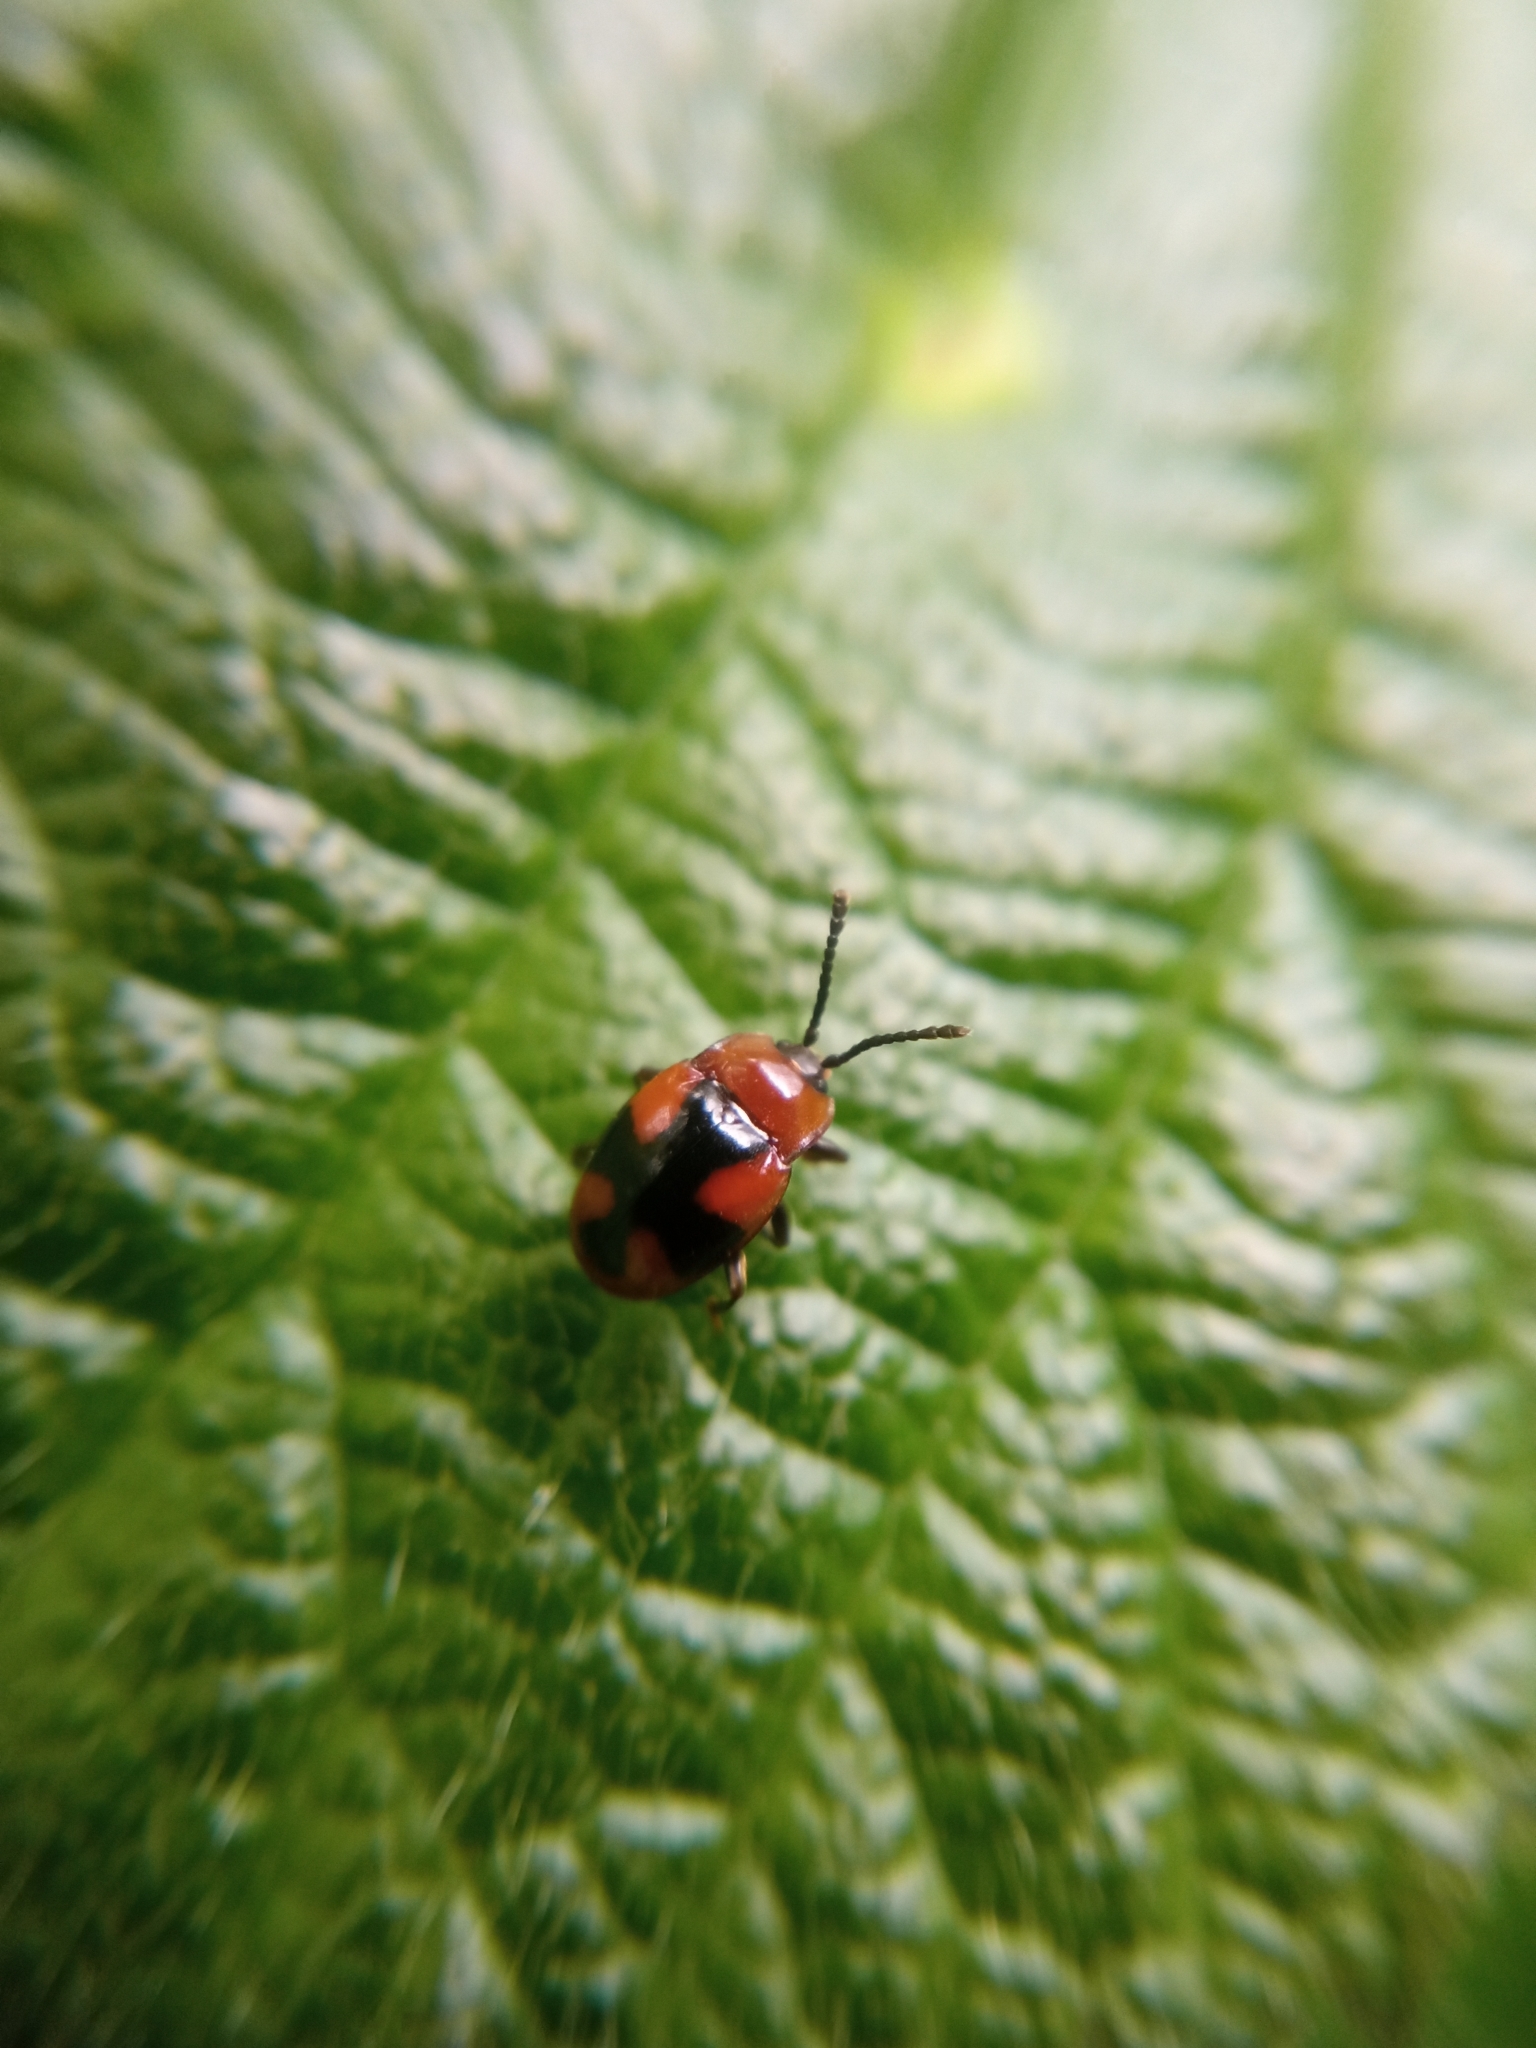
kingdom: Animalia
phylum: Arthropoda
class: Insecta
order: Coleoptera
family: Endomychidae
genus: Mycetina
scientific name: Mycetina cruciata
